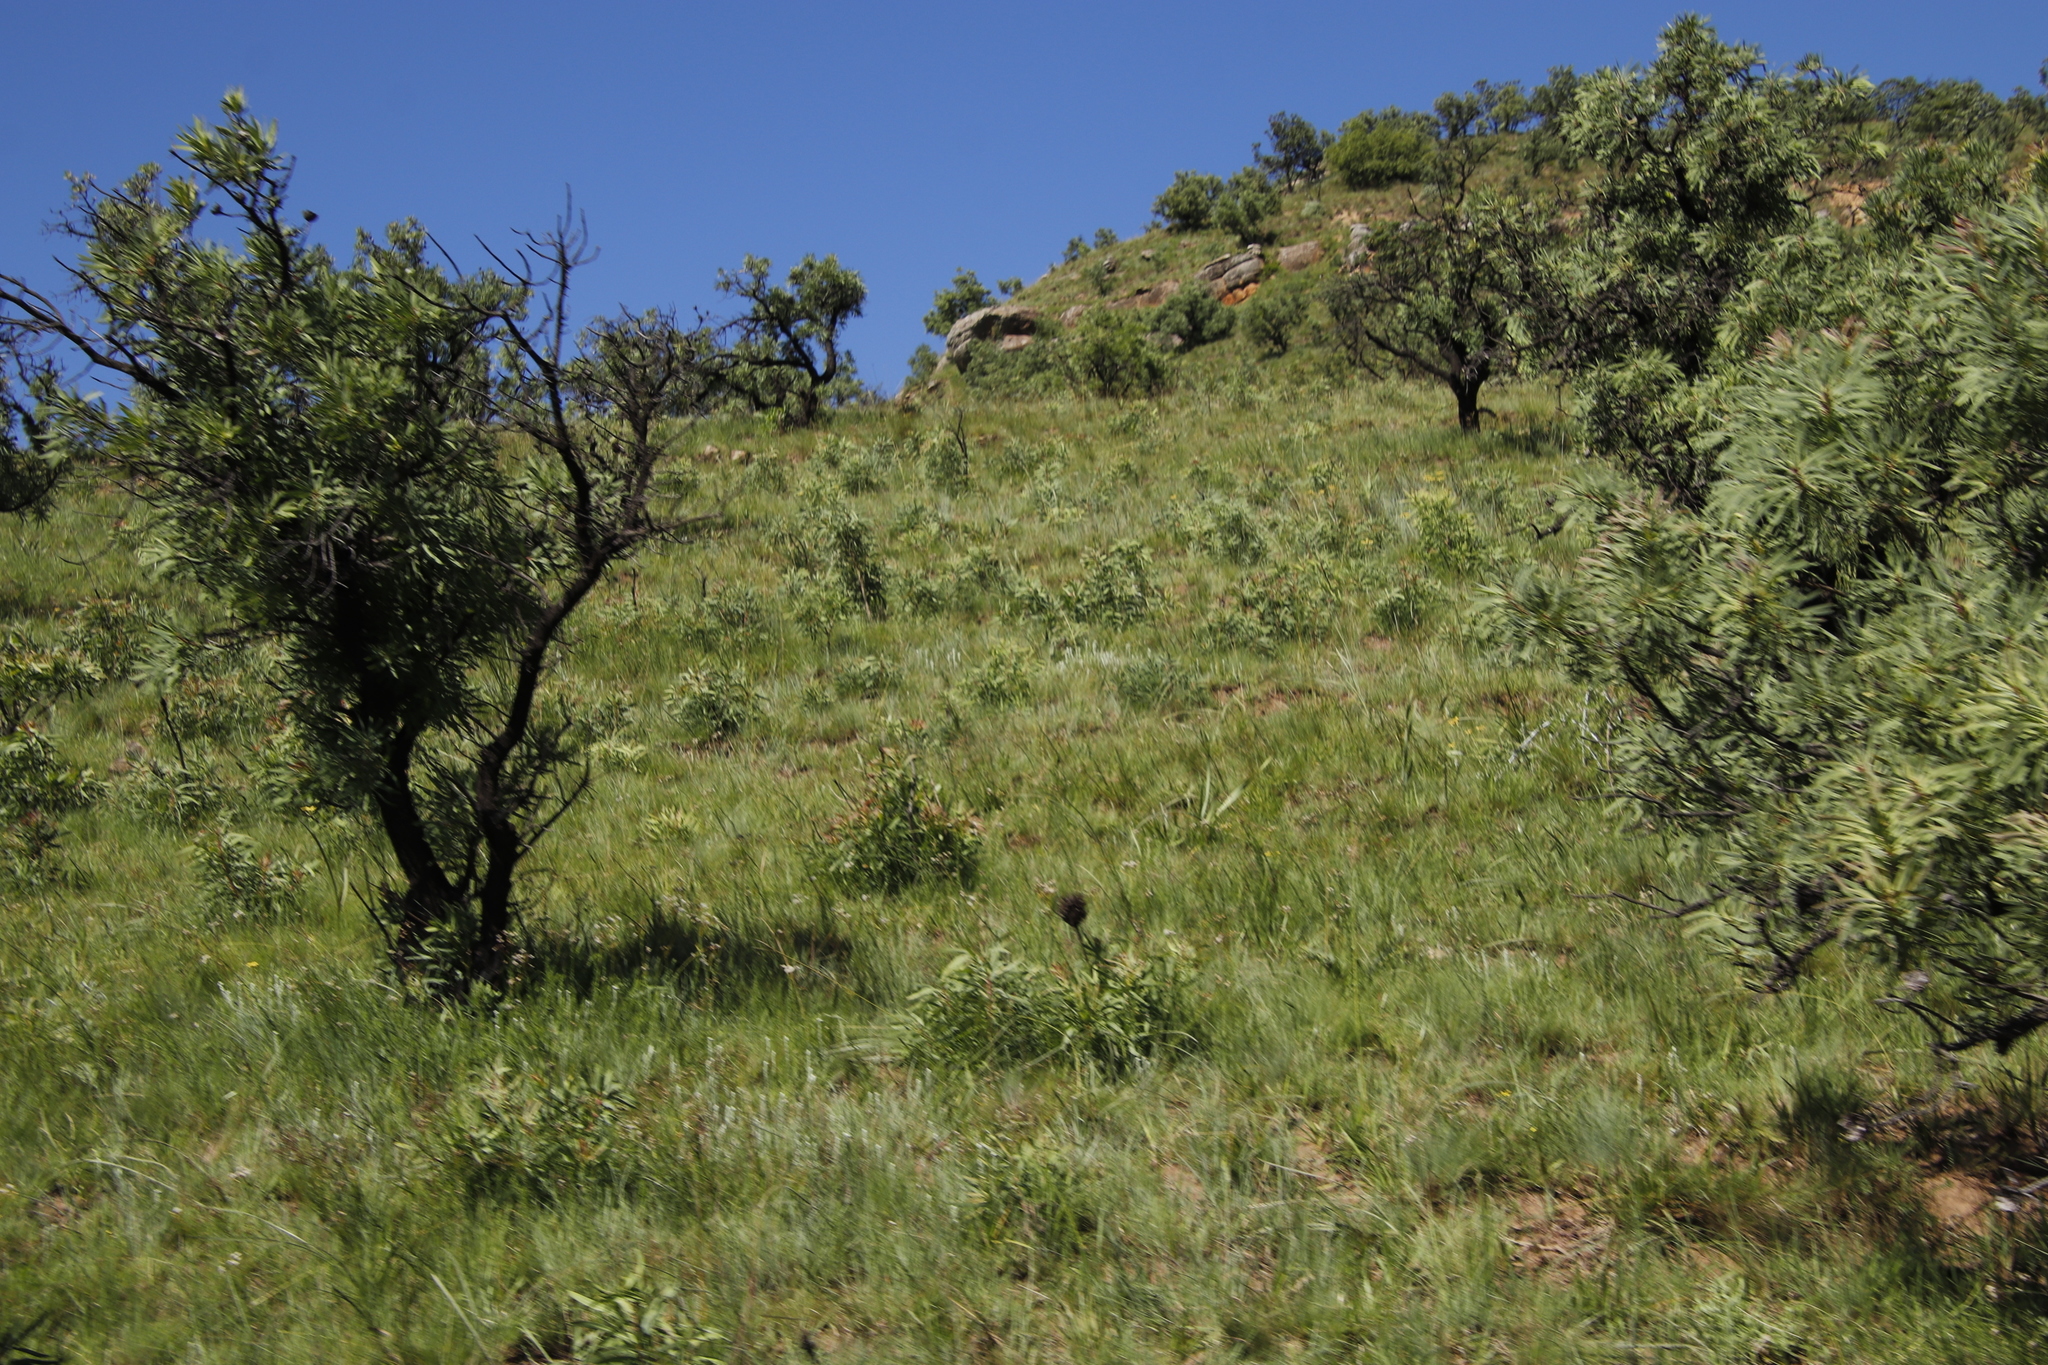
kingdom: Plantae
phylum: Tracheophyta
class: Magnoliopsida
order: Proteales
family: Proteaceae
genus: Protea
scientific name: Protea caffra
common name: Common sugarbush
